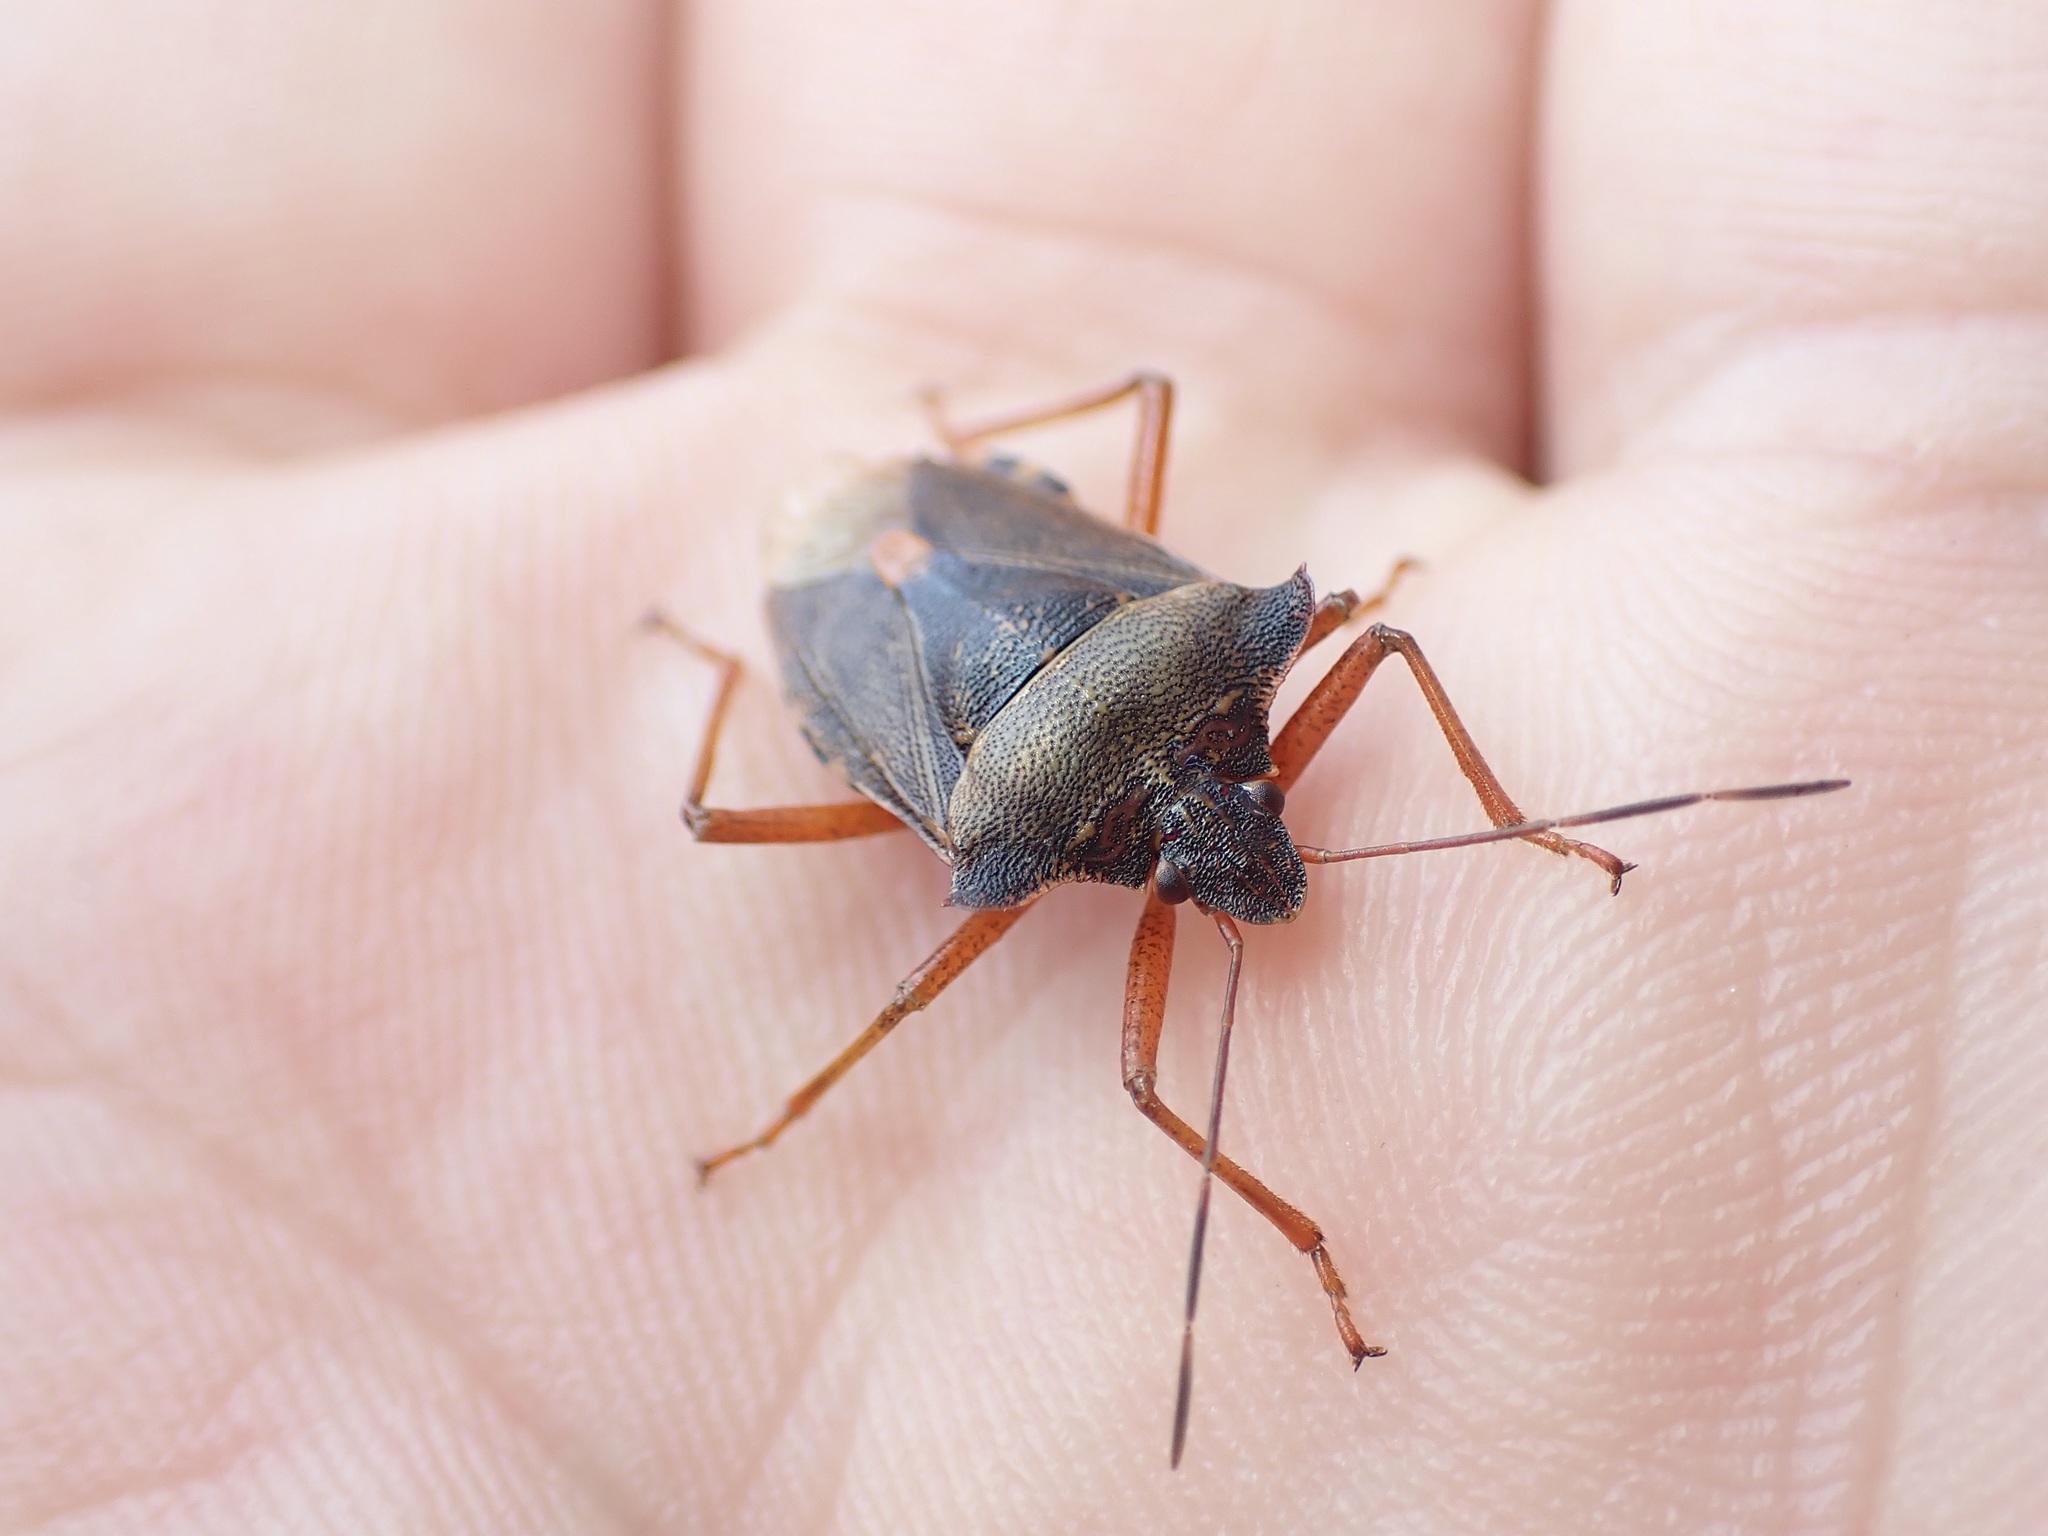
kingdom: Animalia
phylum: Arthropoda
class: Insecta
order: Hemiptera
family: Pentatomidae
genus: Pentatoma
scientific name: Pentatoma rufipes
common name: Forest bug
